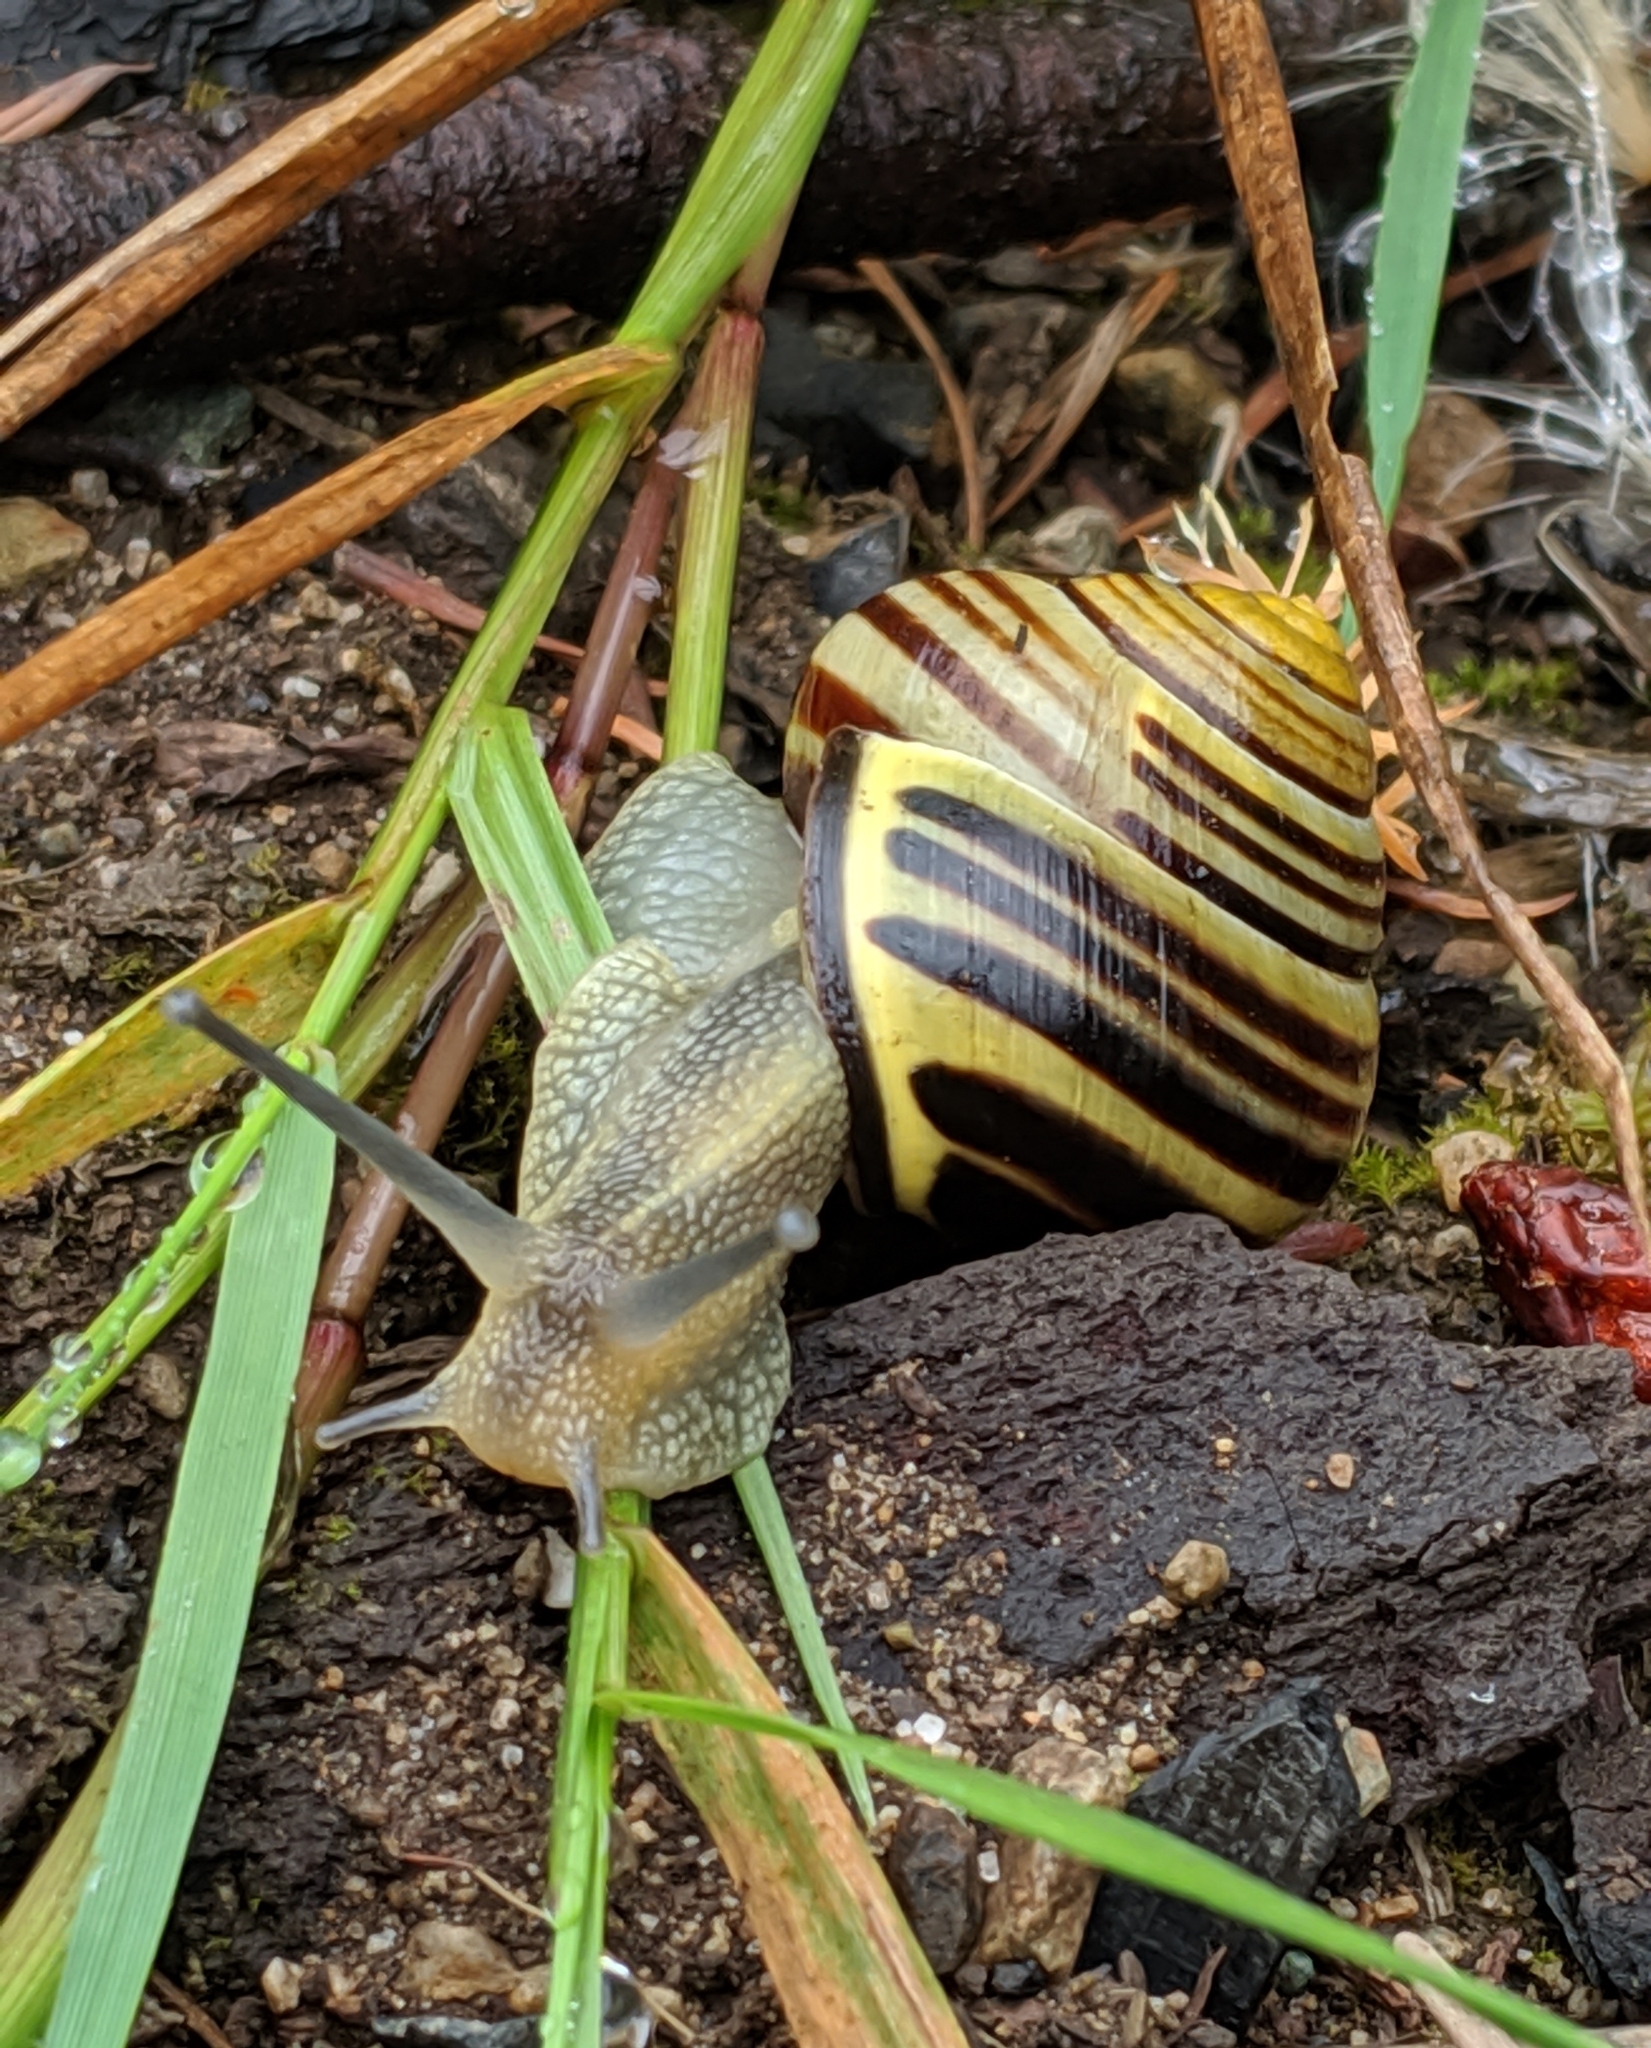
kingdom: Animalia
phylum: Mollusca
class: Gastropoda
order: Stylommatophora
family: Helicidae
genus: Cepaea
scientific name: Cepaea nemoralis
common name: Grovesnail
